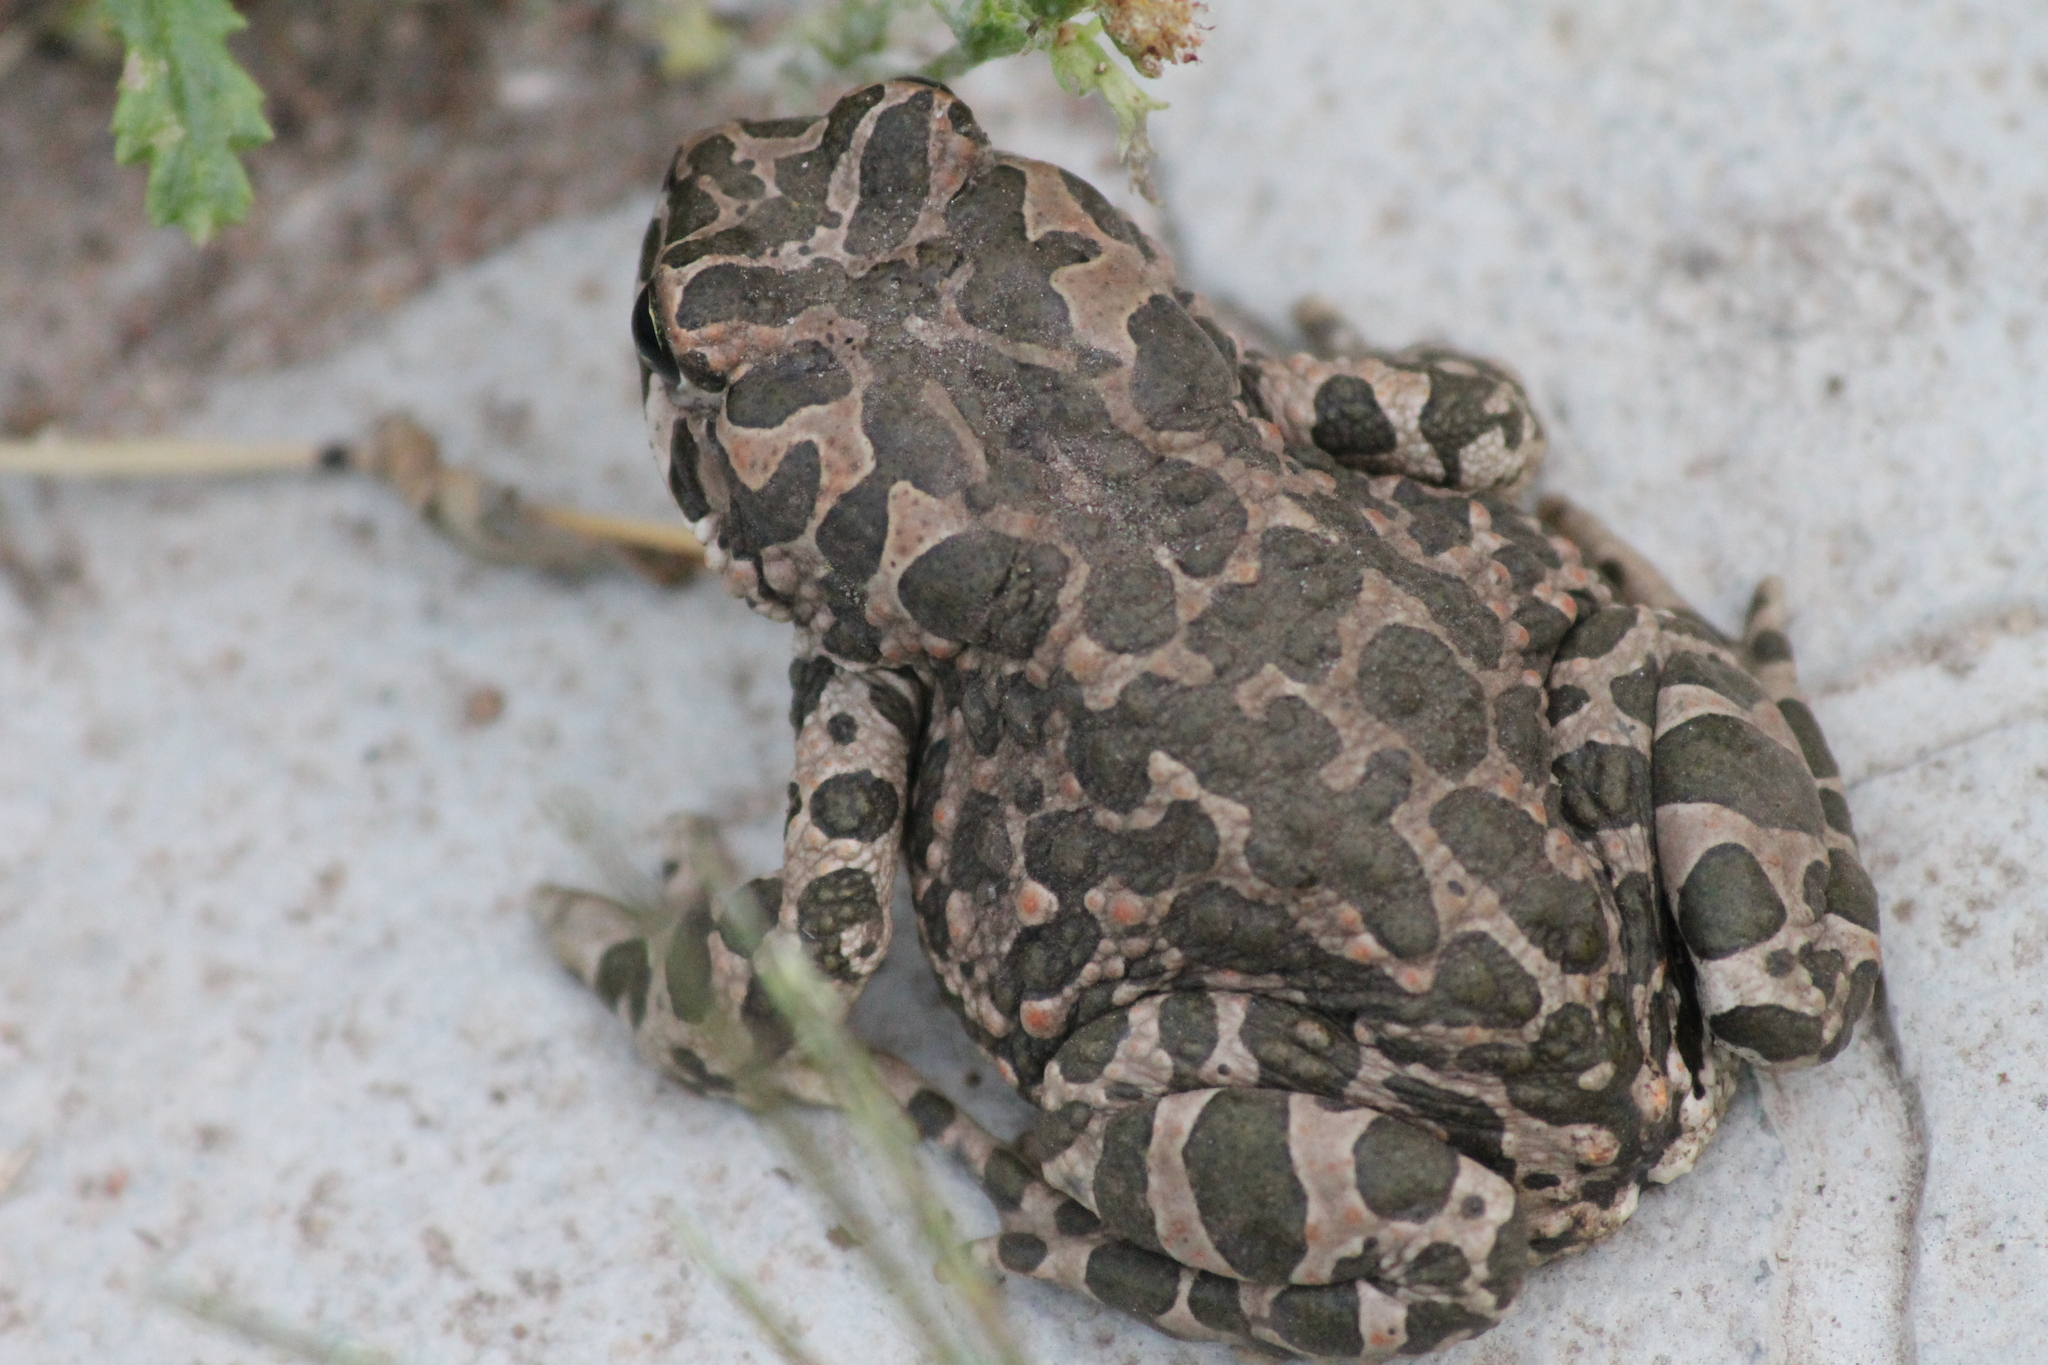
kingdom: Animalia
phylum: Chordata
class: Amphibia
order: Anura
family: Bufonidae
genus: Bufotes
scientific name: Bufotes viridis
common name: European green toad
